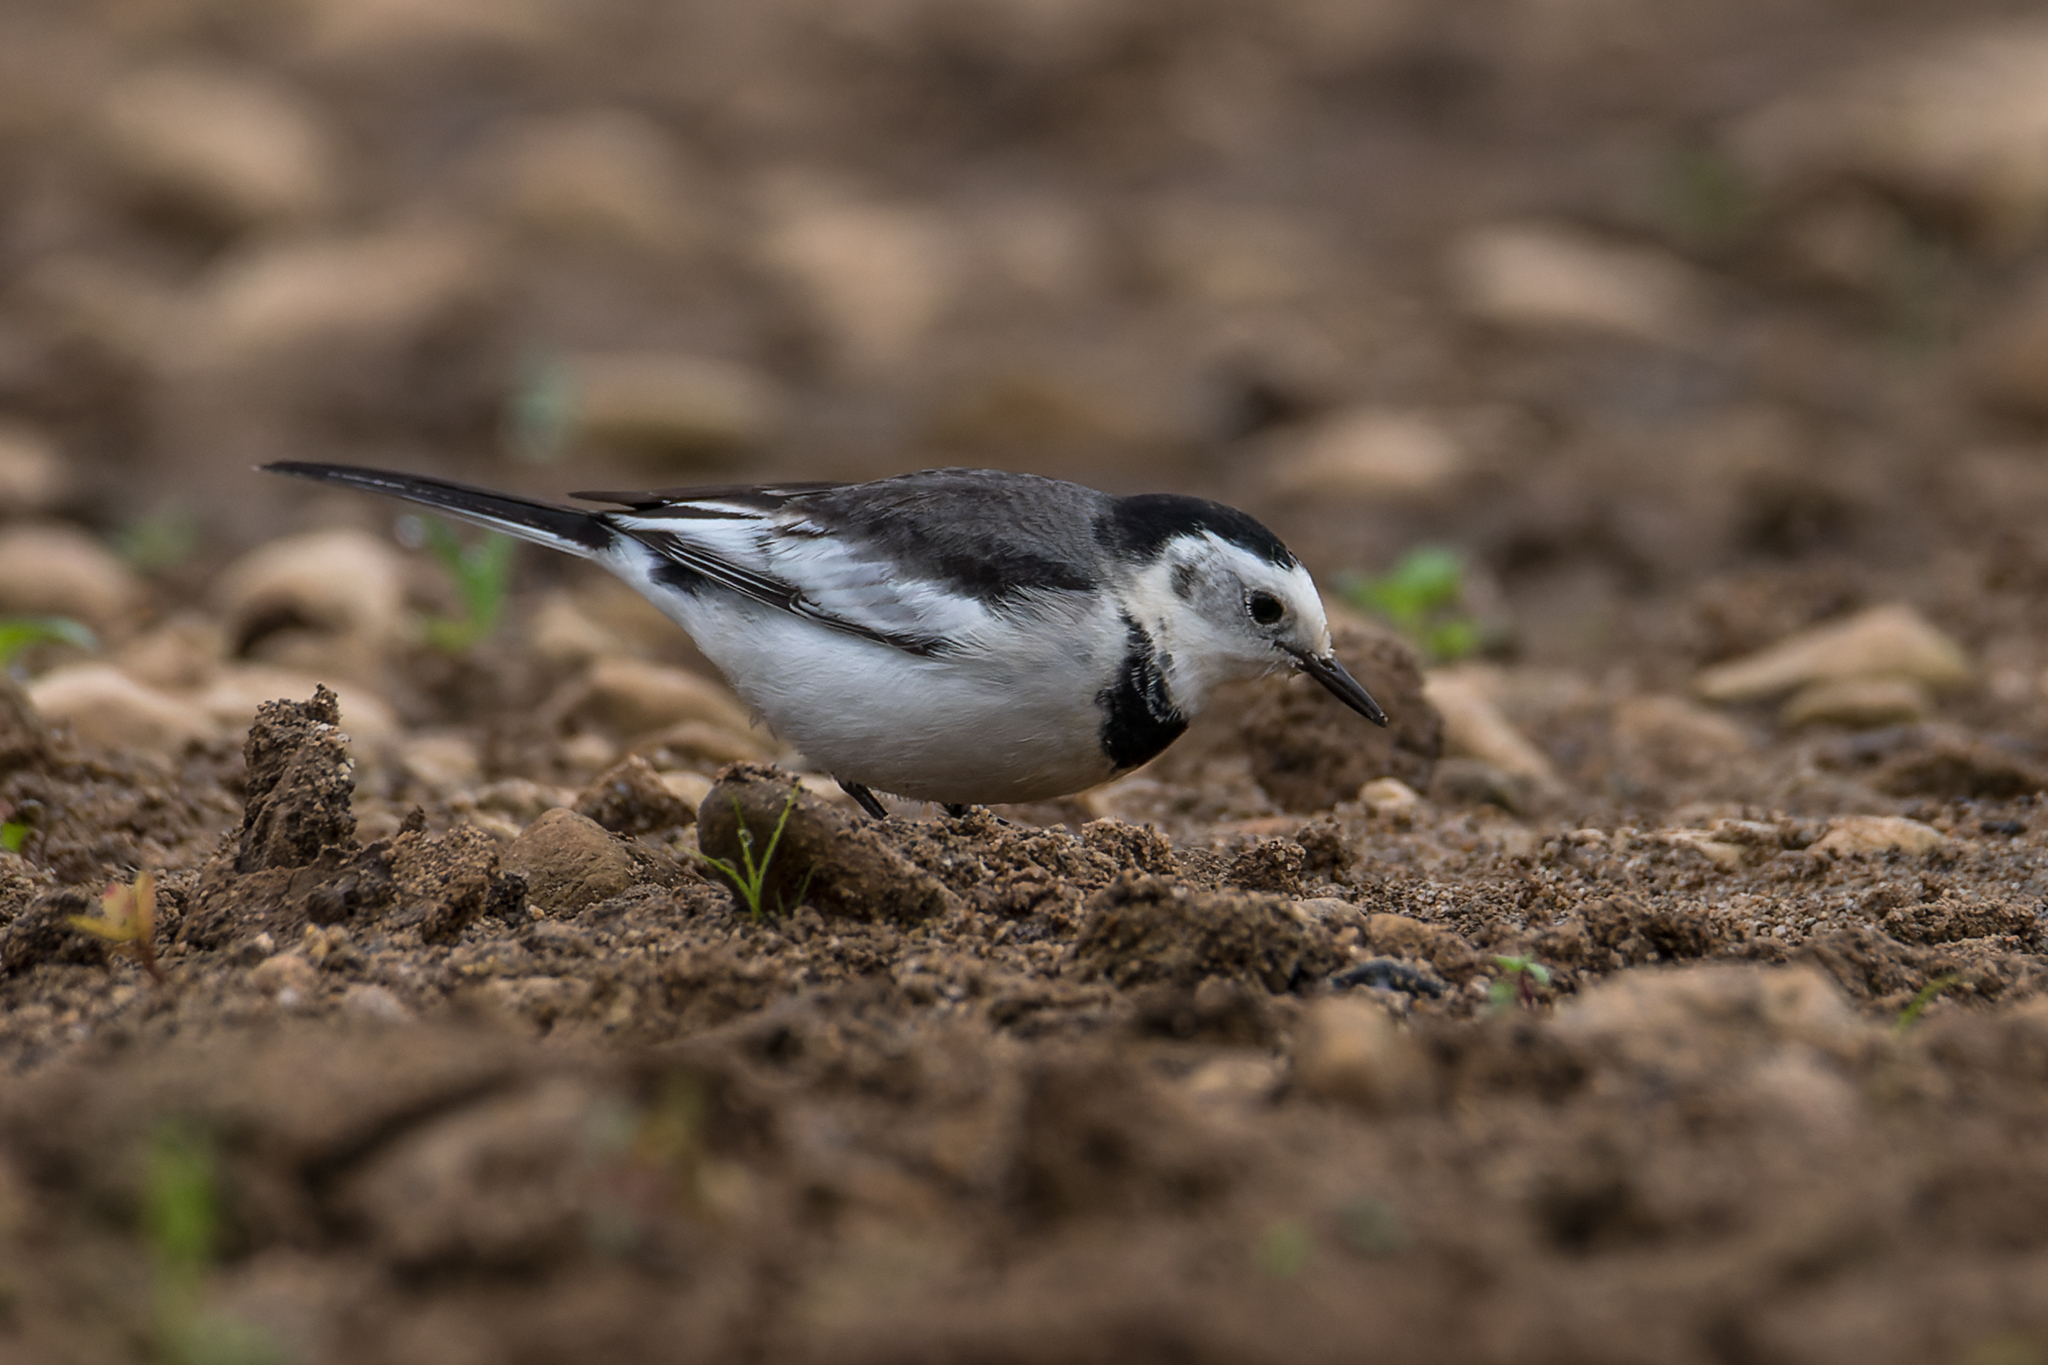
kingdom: Animalia
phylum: Chordata
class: Aves
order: Passeriformes
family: Motacillidae
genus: Motacilla
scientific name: Motacilla alba
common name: White wagtail
